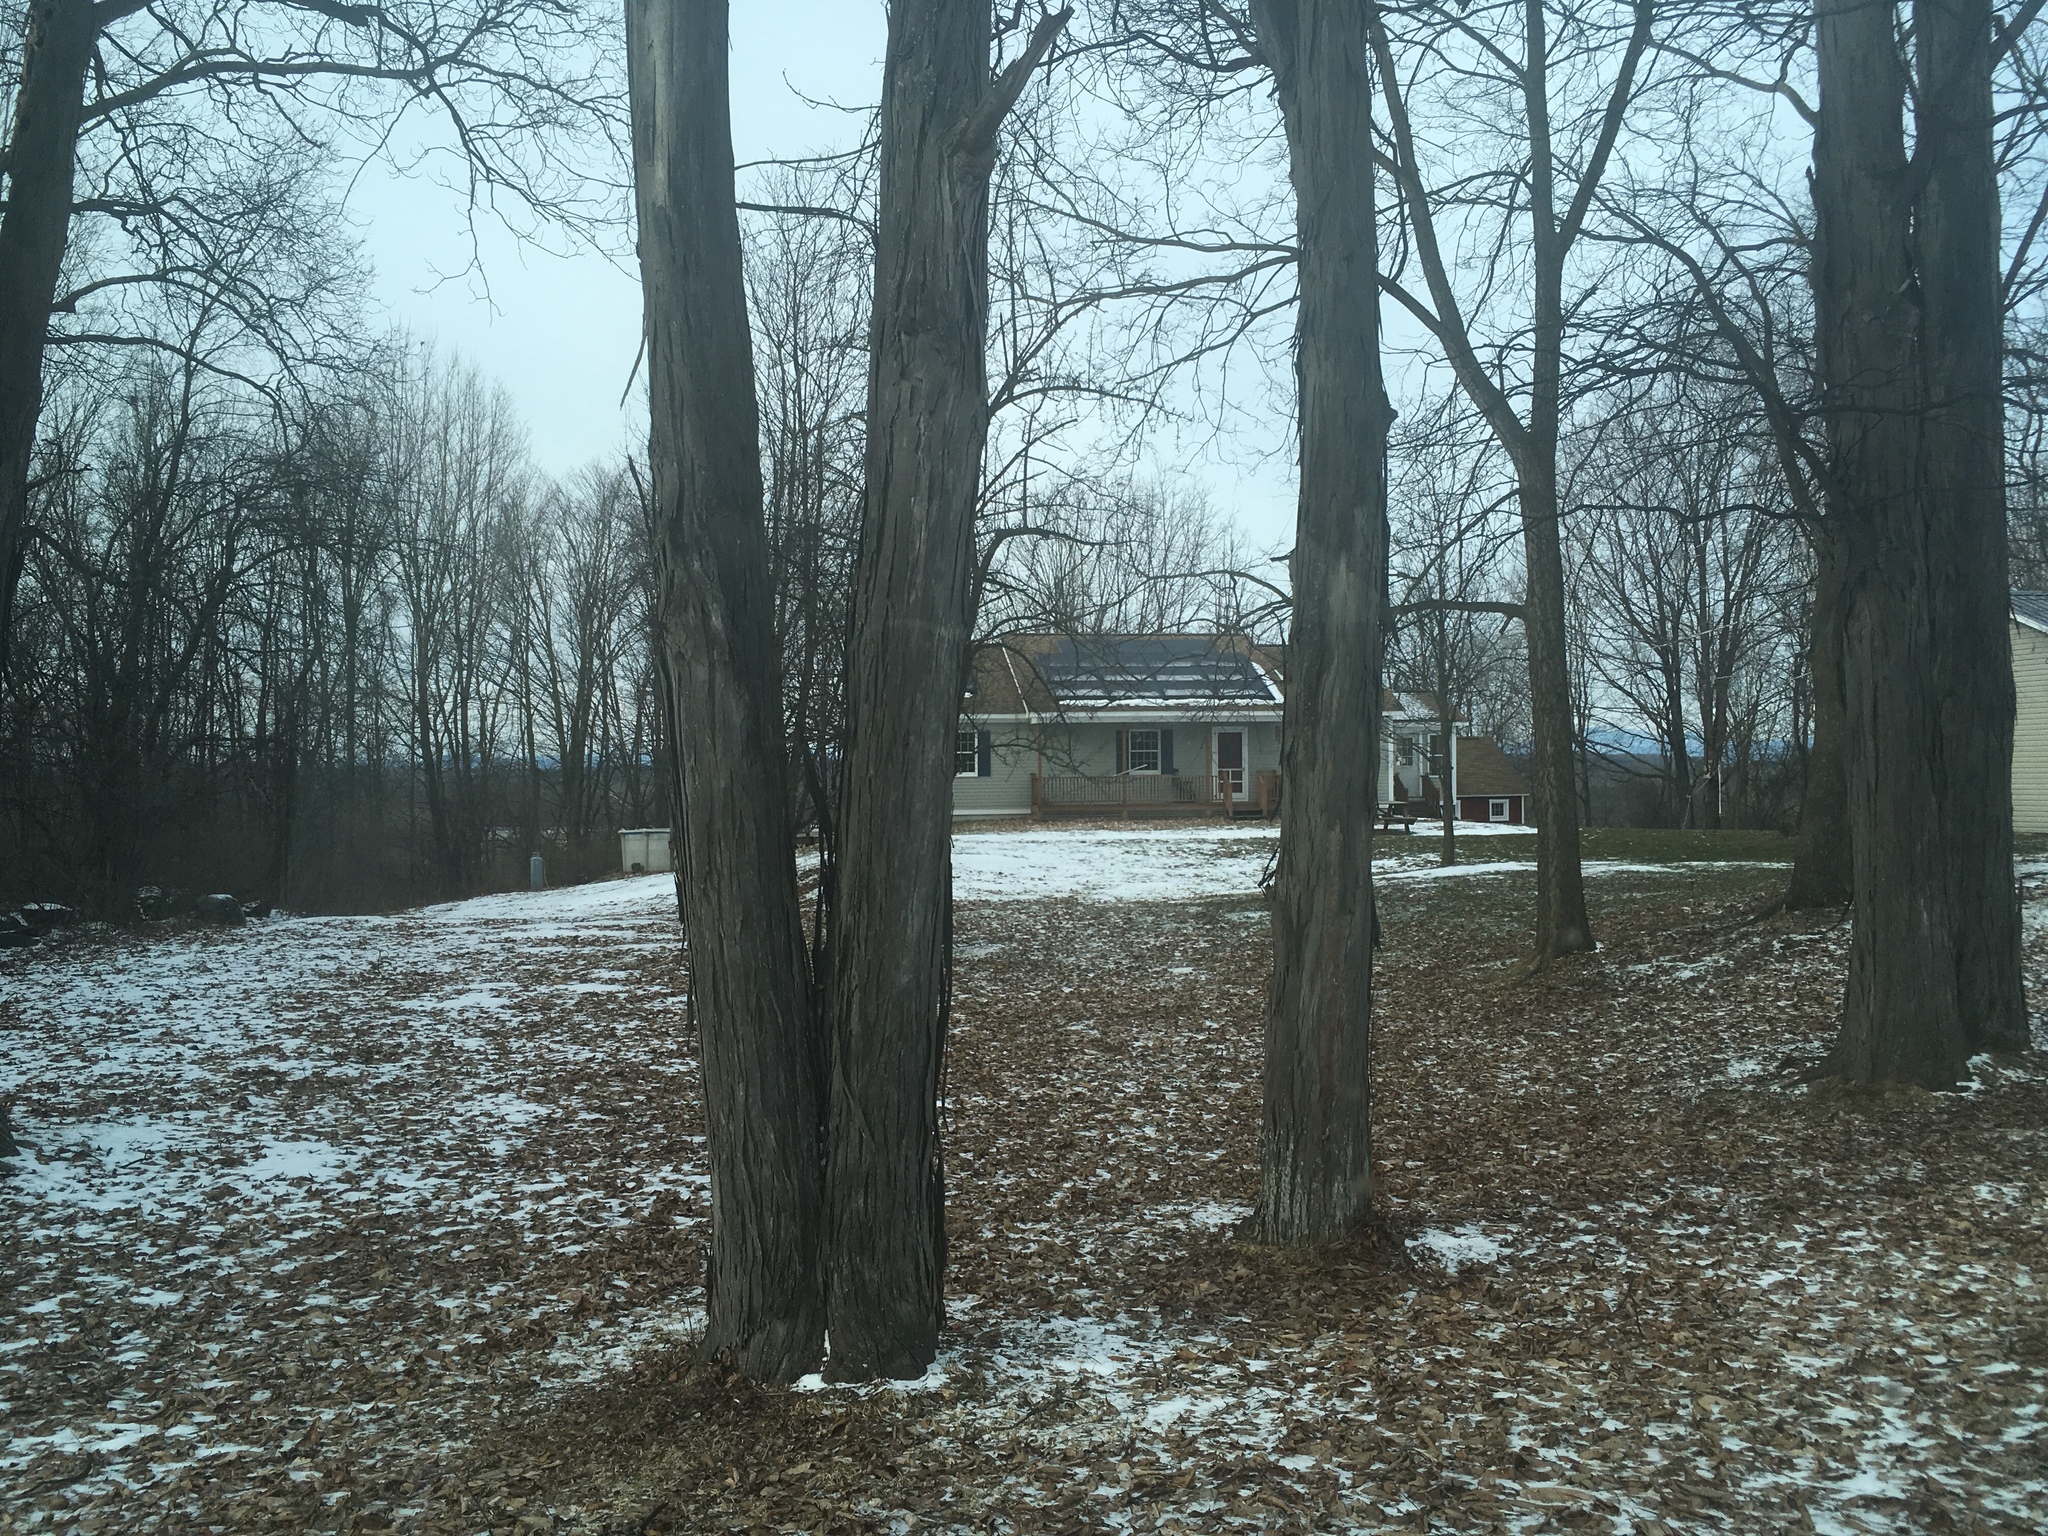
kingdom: Plantae
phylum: Tracheophyta
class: Magnoliopsida
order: Fagales
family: Juglandaceae
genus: Carya
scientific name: Carya ovata
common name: Shagbark hickory
